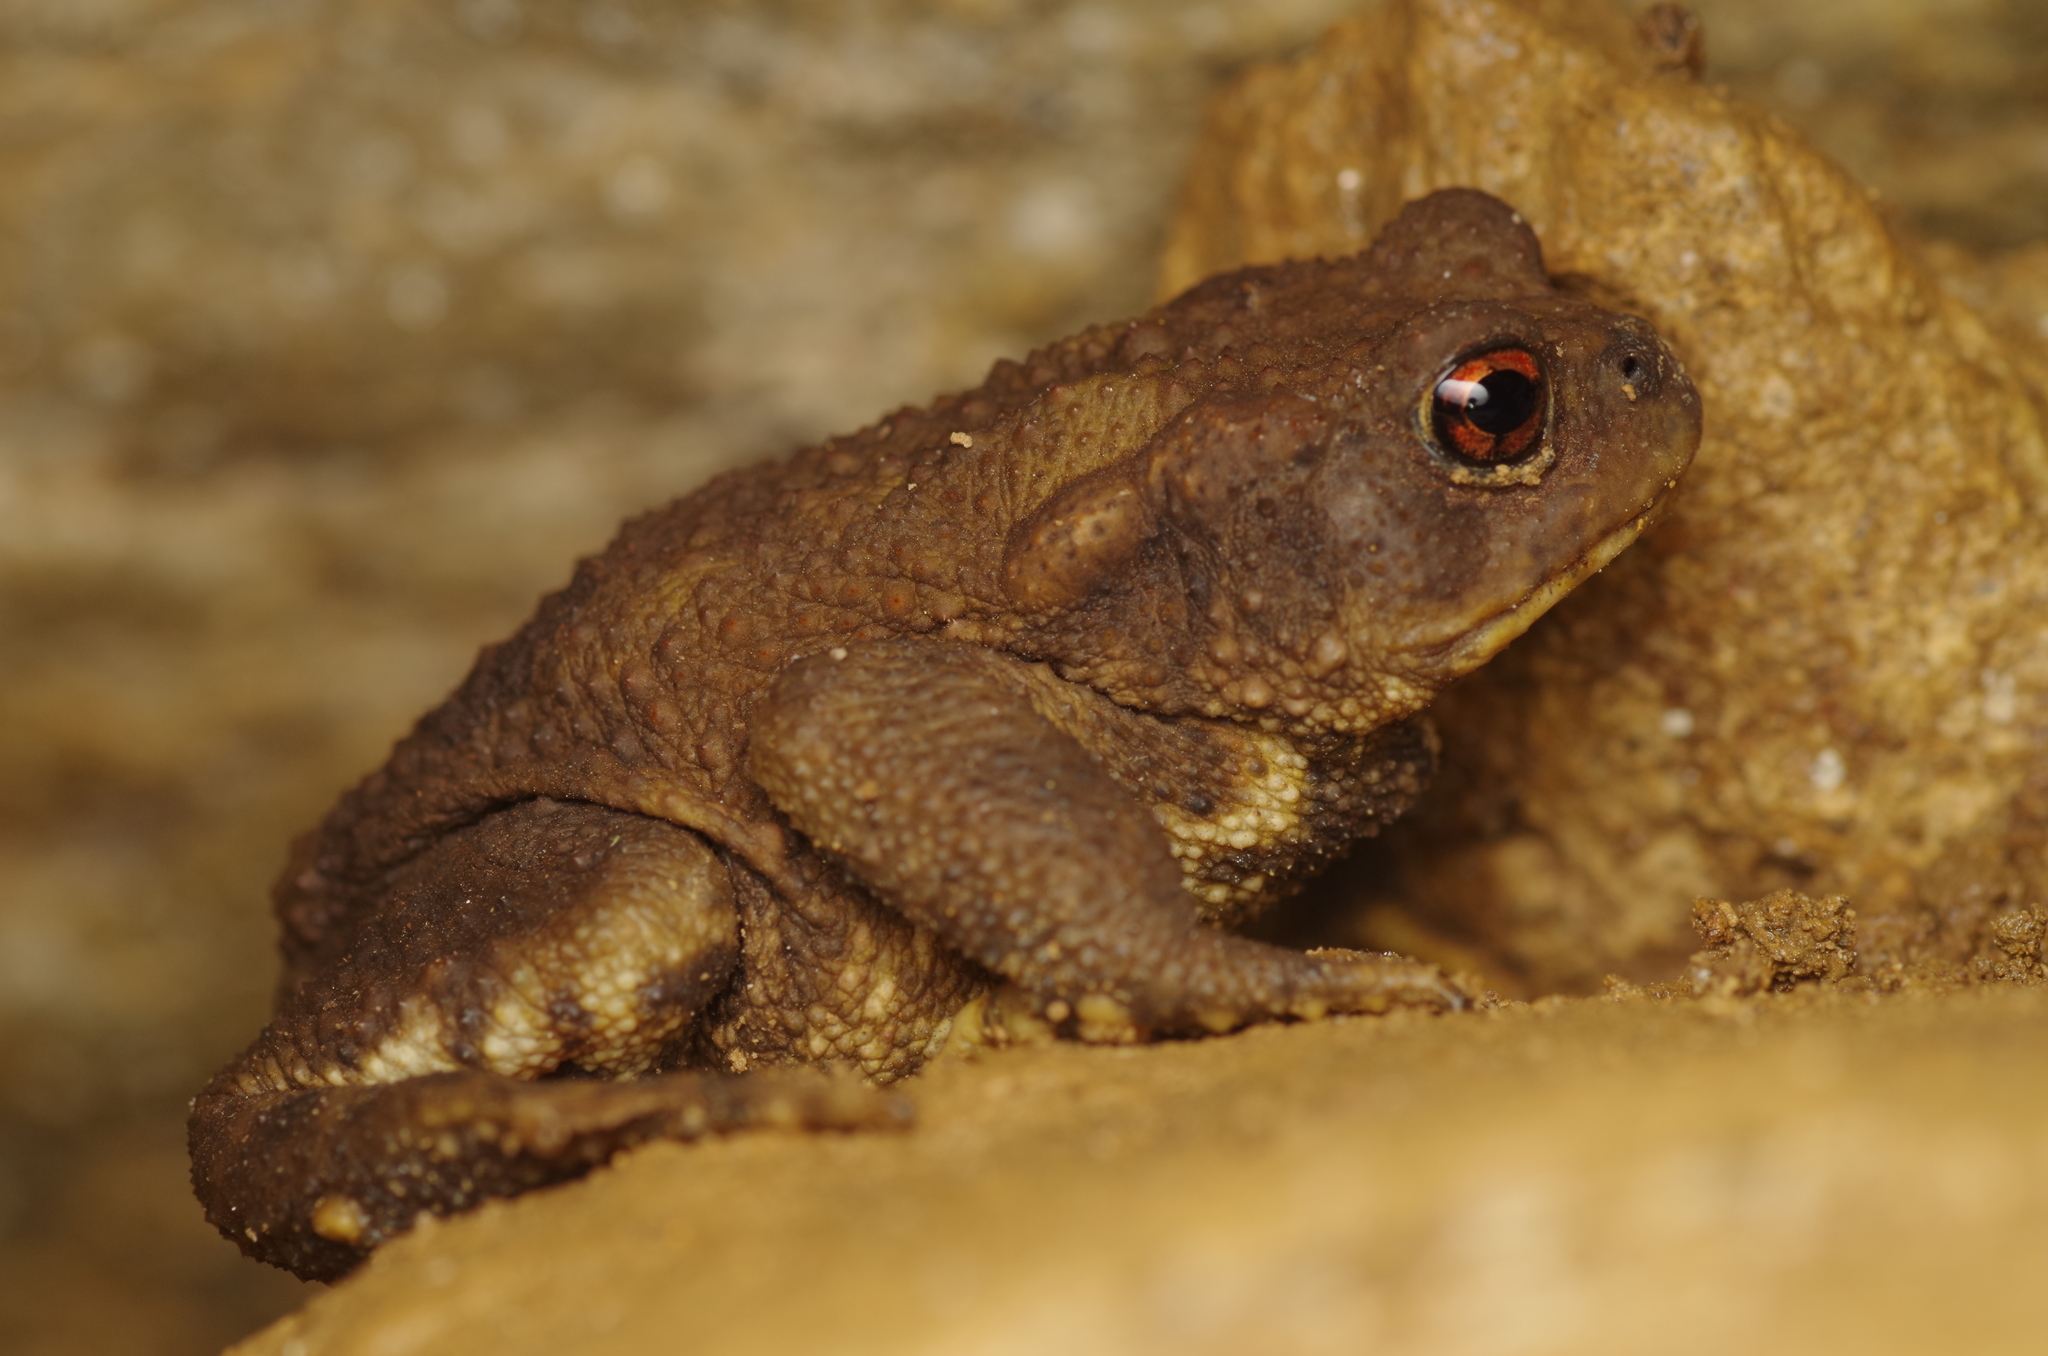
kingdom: Animalia
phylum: Chordata
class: Amphibia
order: Anura
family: Bufonidae
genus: Bufo
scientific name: Bufo spinosus
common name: Western common toad
